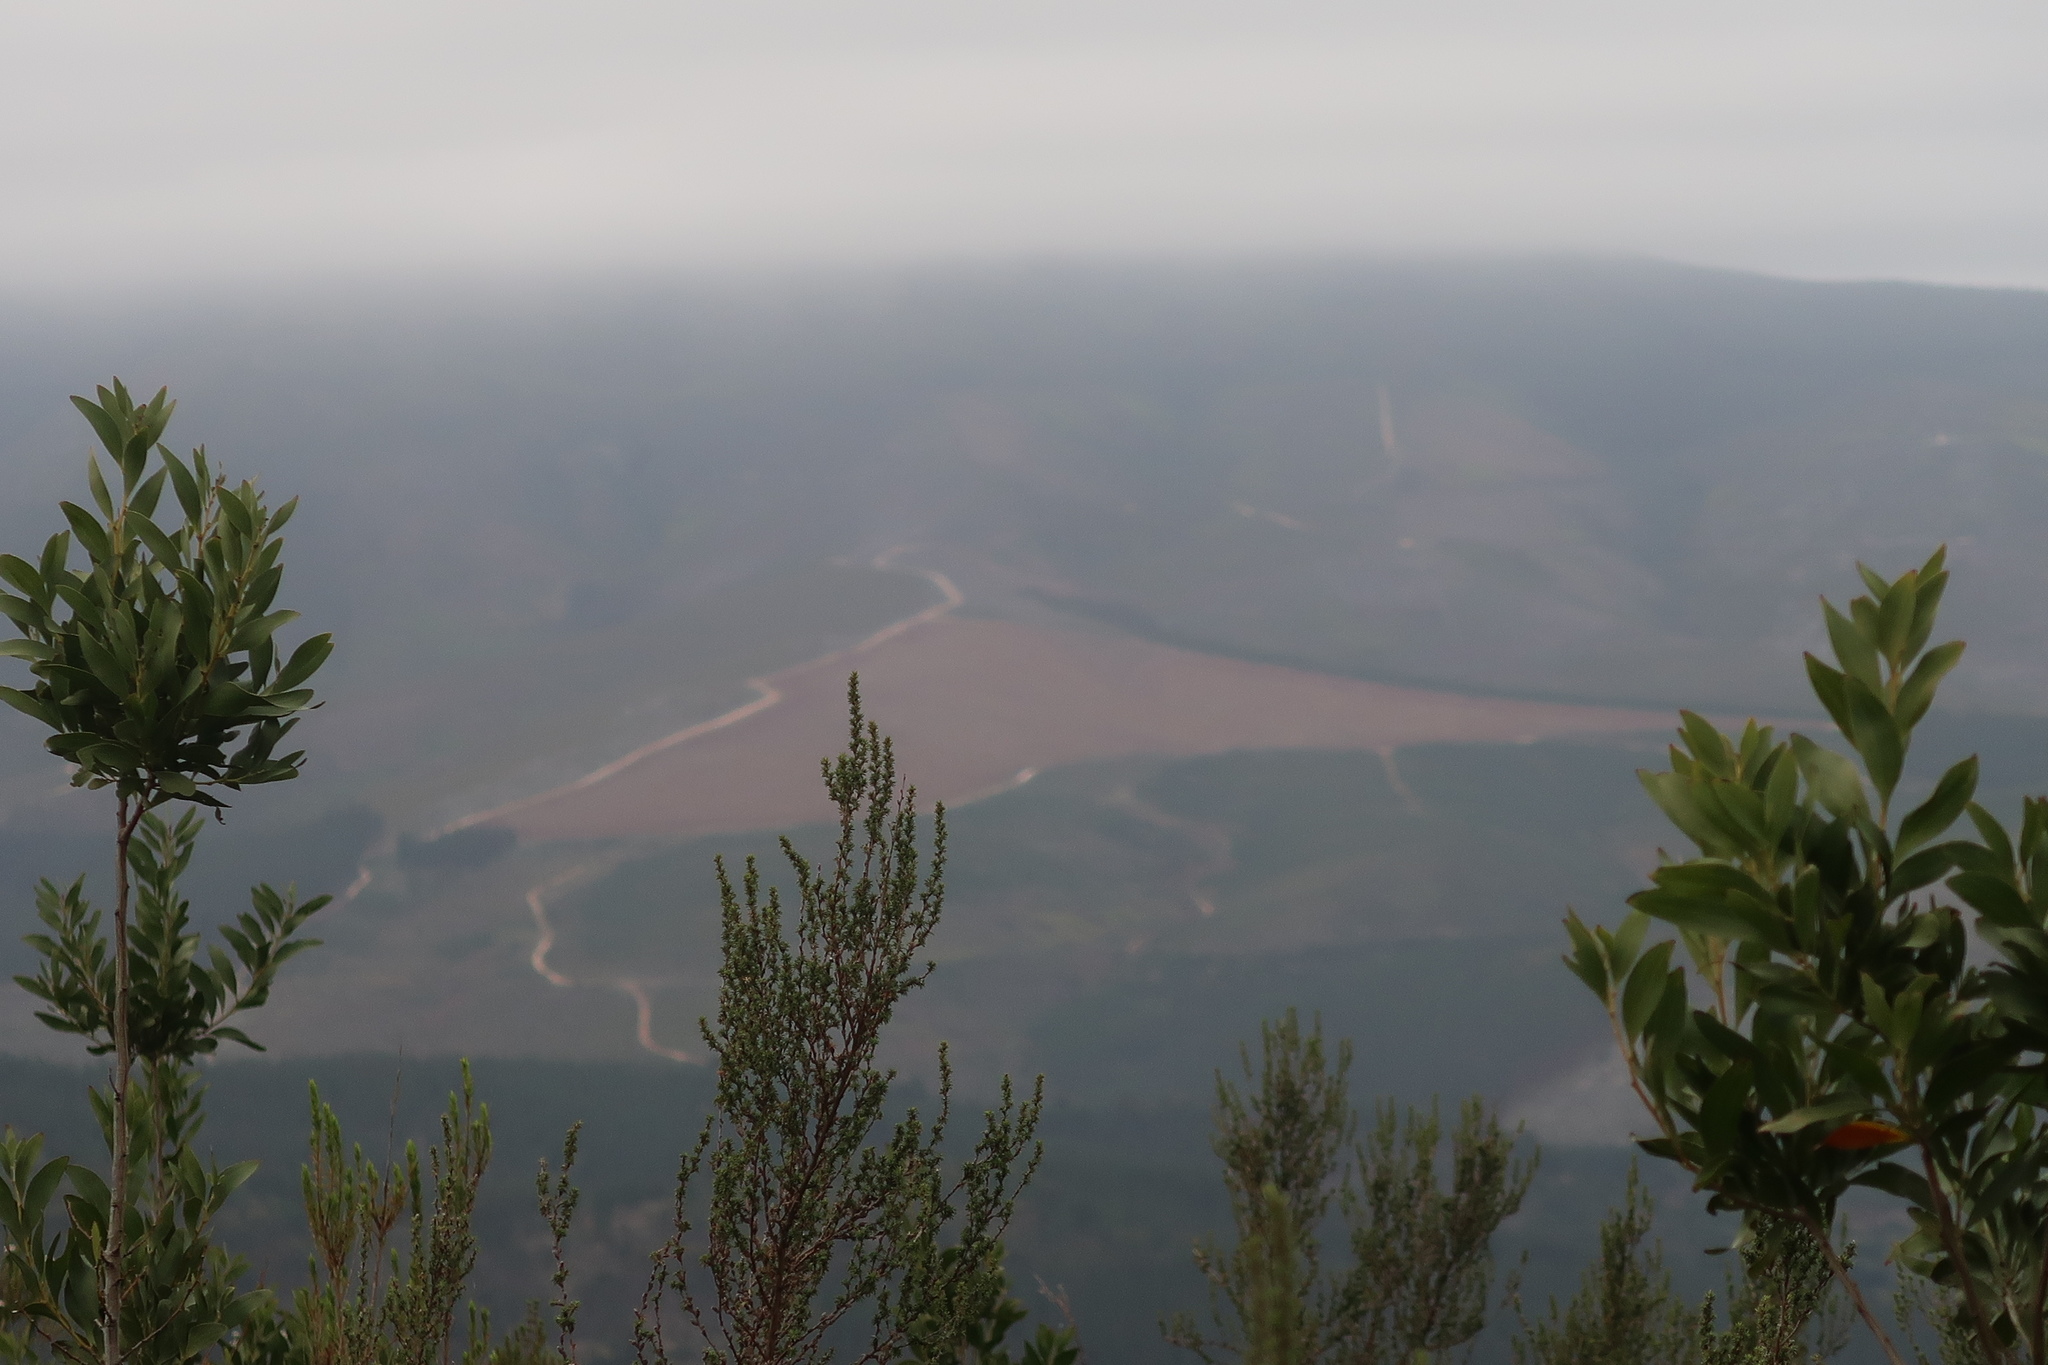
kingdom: Plantae
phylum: Tracheophyta
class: Magnoliopsida
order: Fabales
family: Fabaceae
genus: Acacia
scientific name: Acacia melanoxylon
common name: Blackwood
